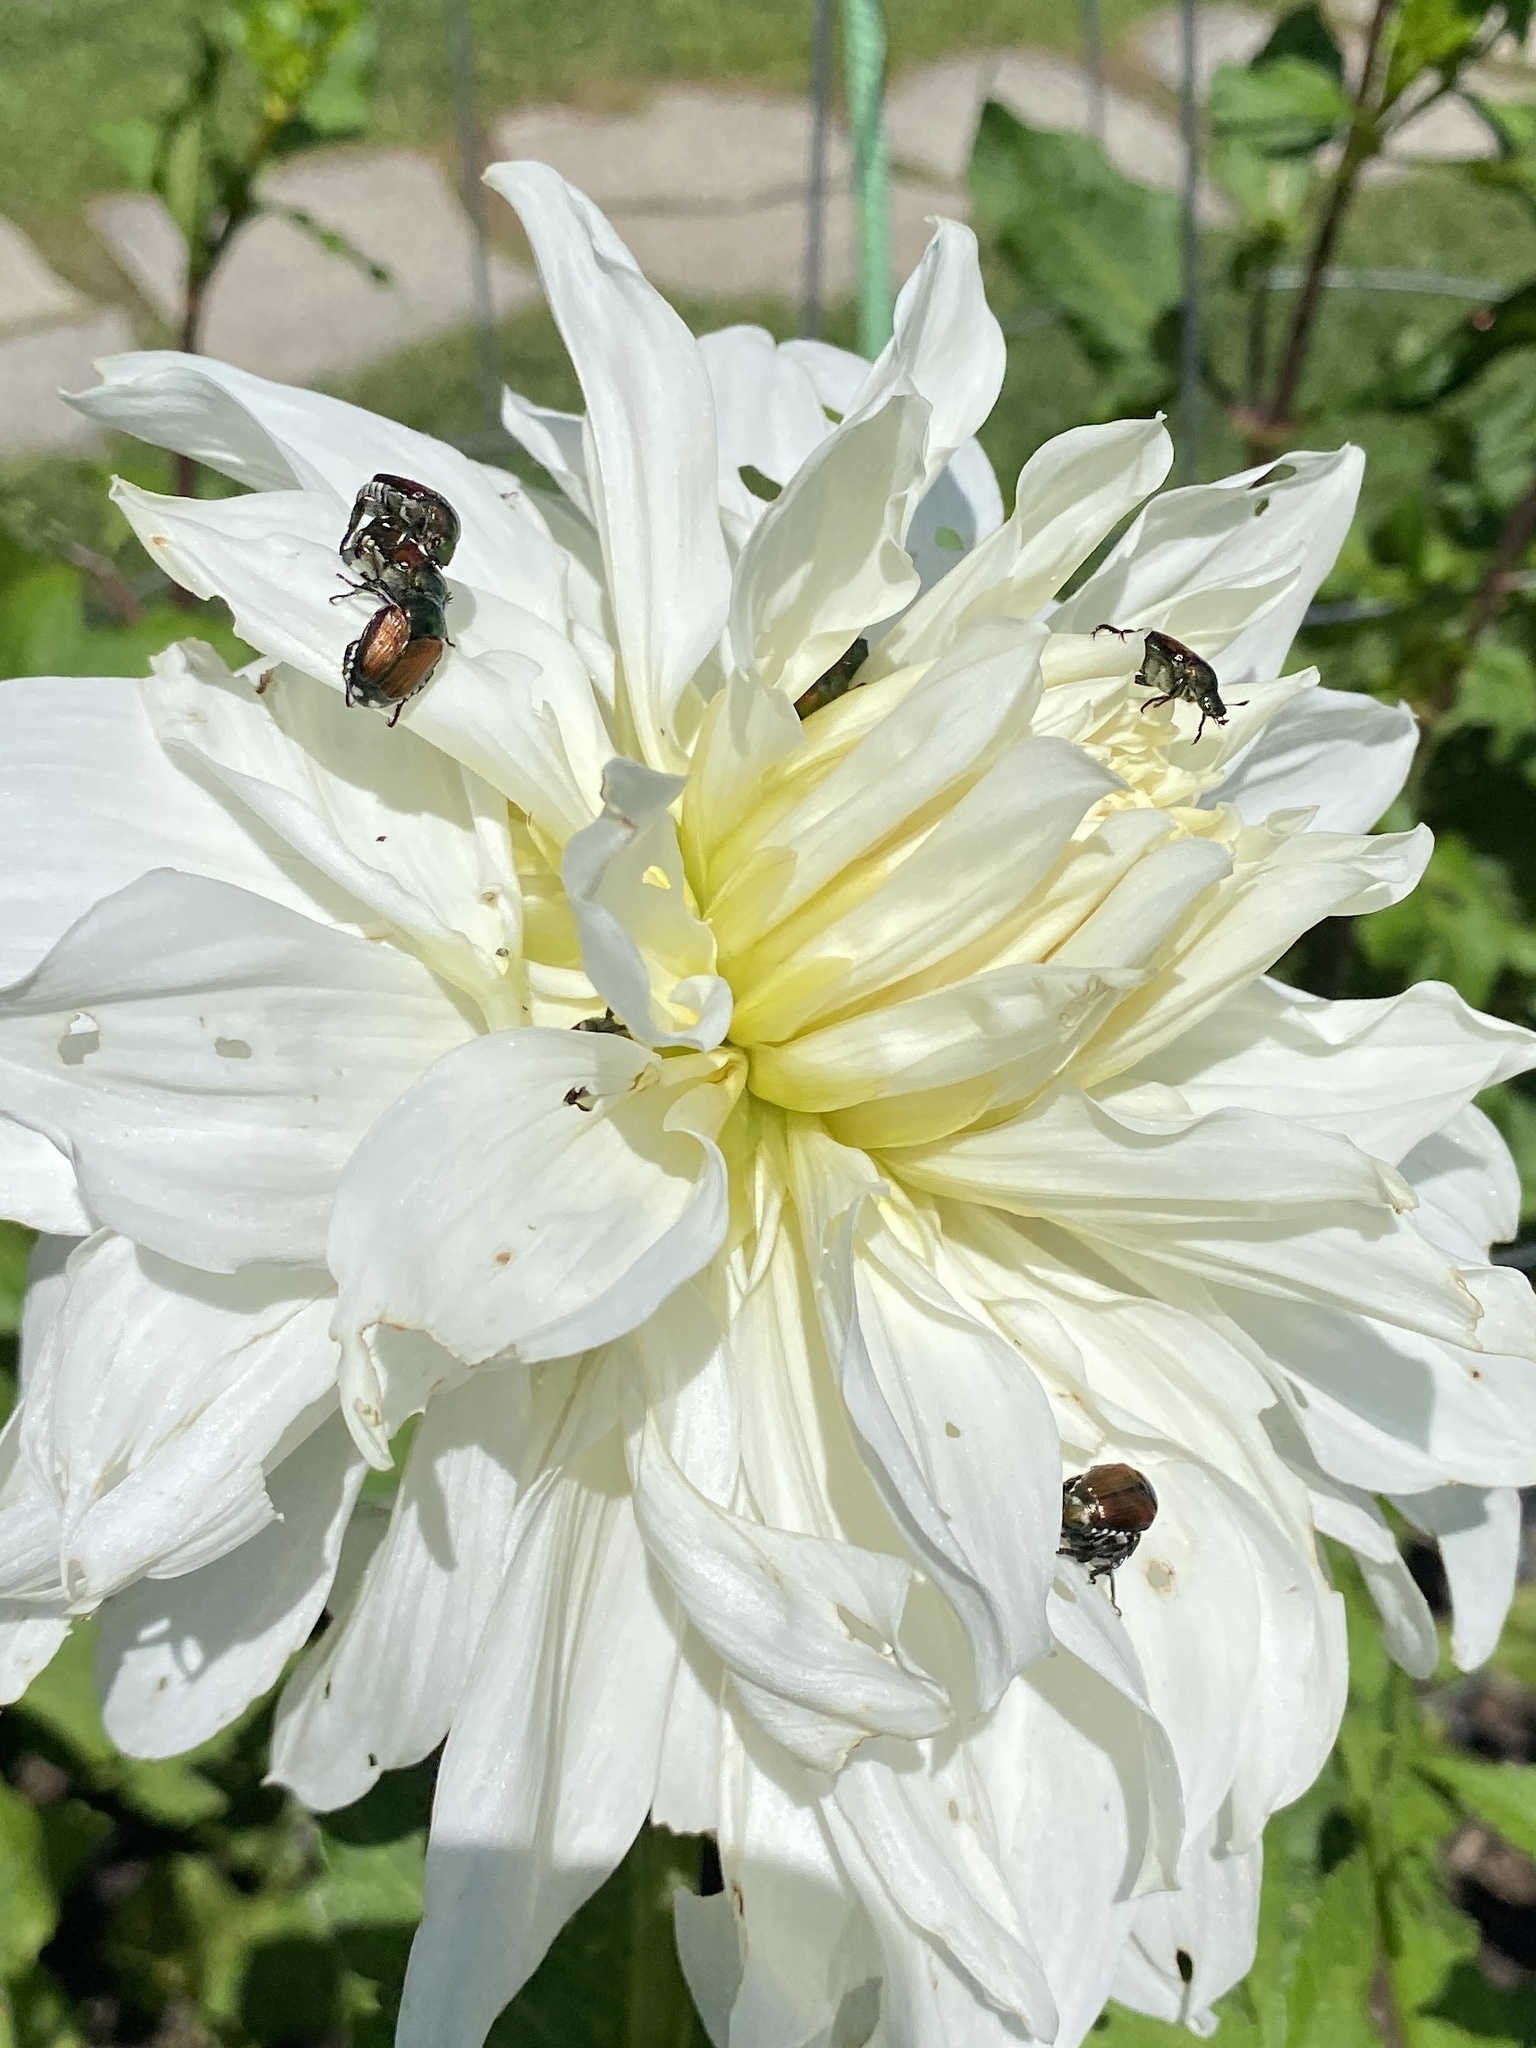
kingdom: Animalia
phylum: Arthropoda
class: Insecta
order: Coleoptera
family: Scarabaeidae
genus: Popillia
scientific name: Popillia japonica
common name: Japanese beetle
